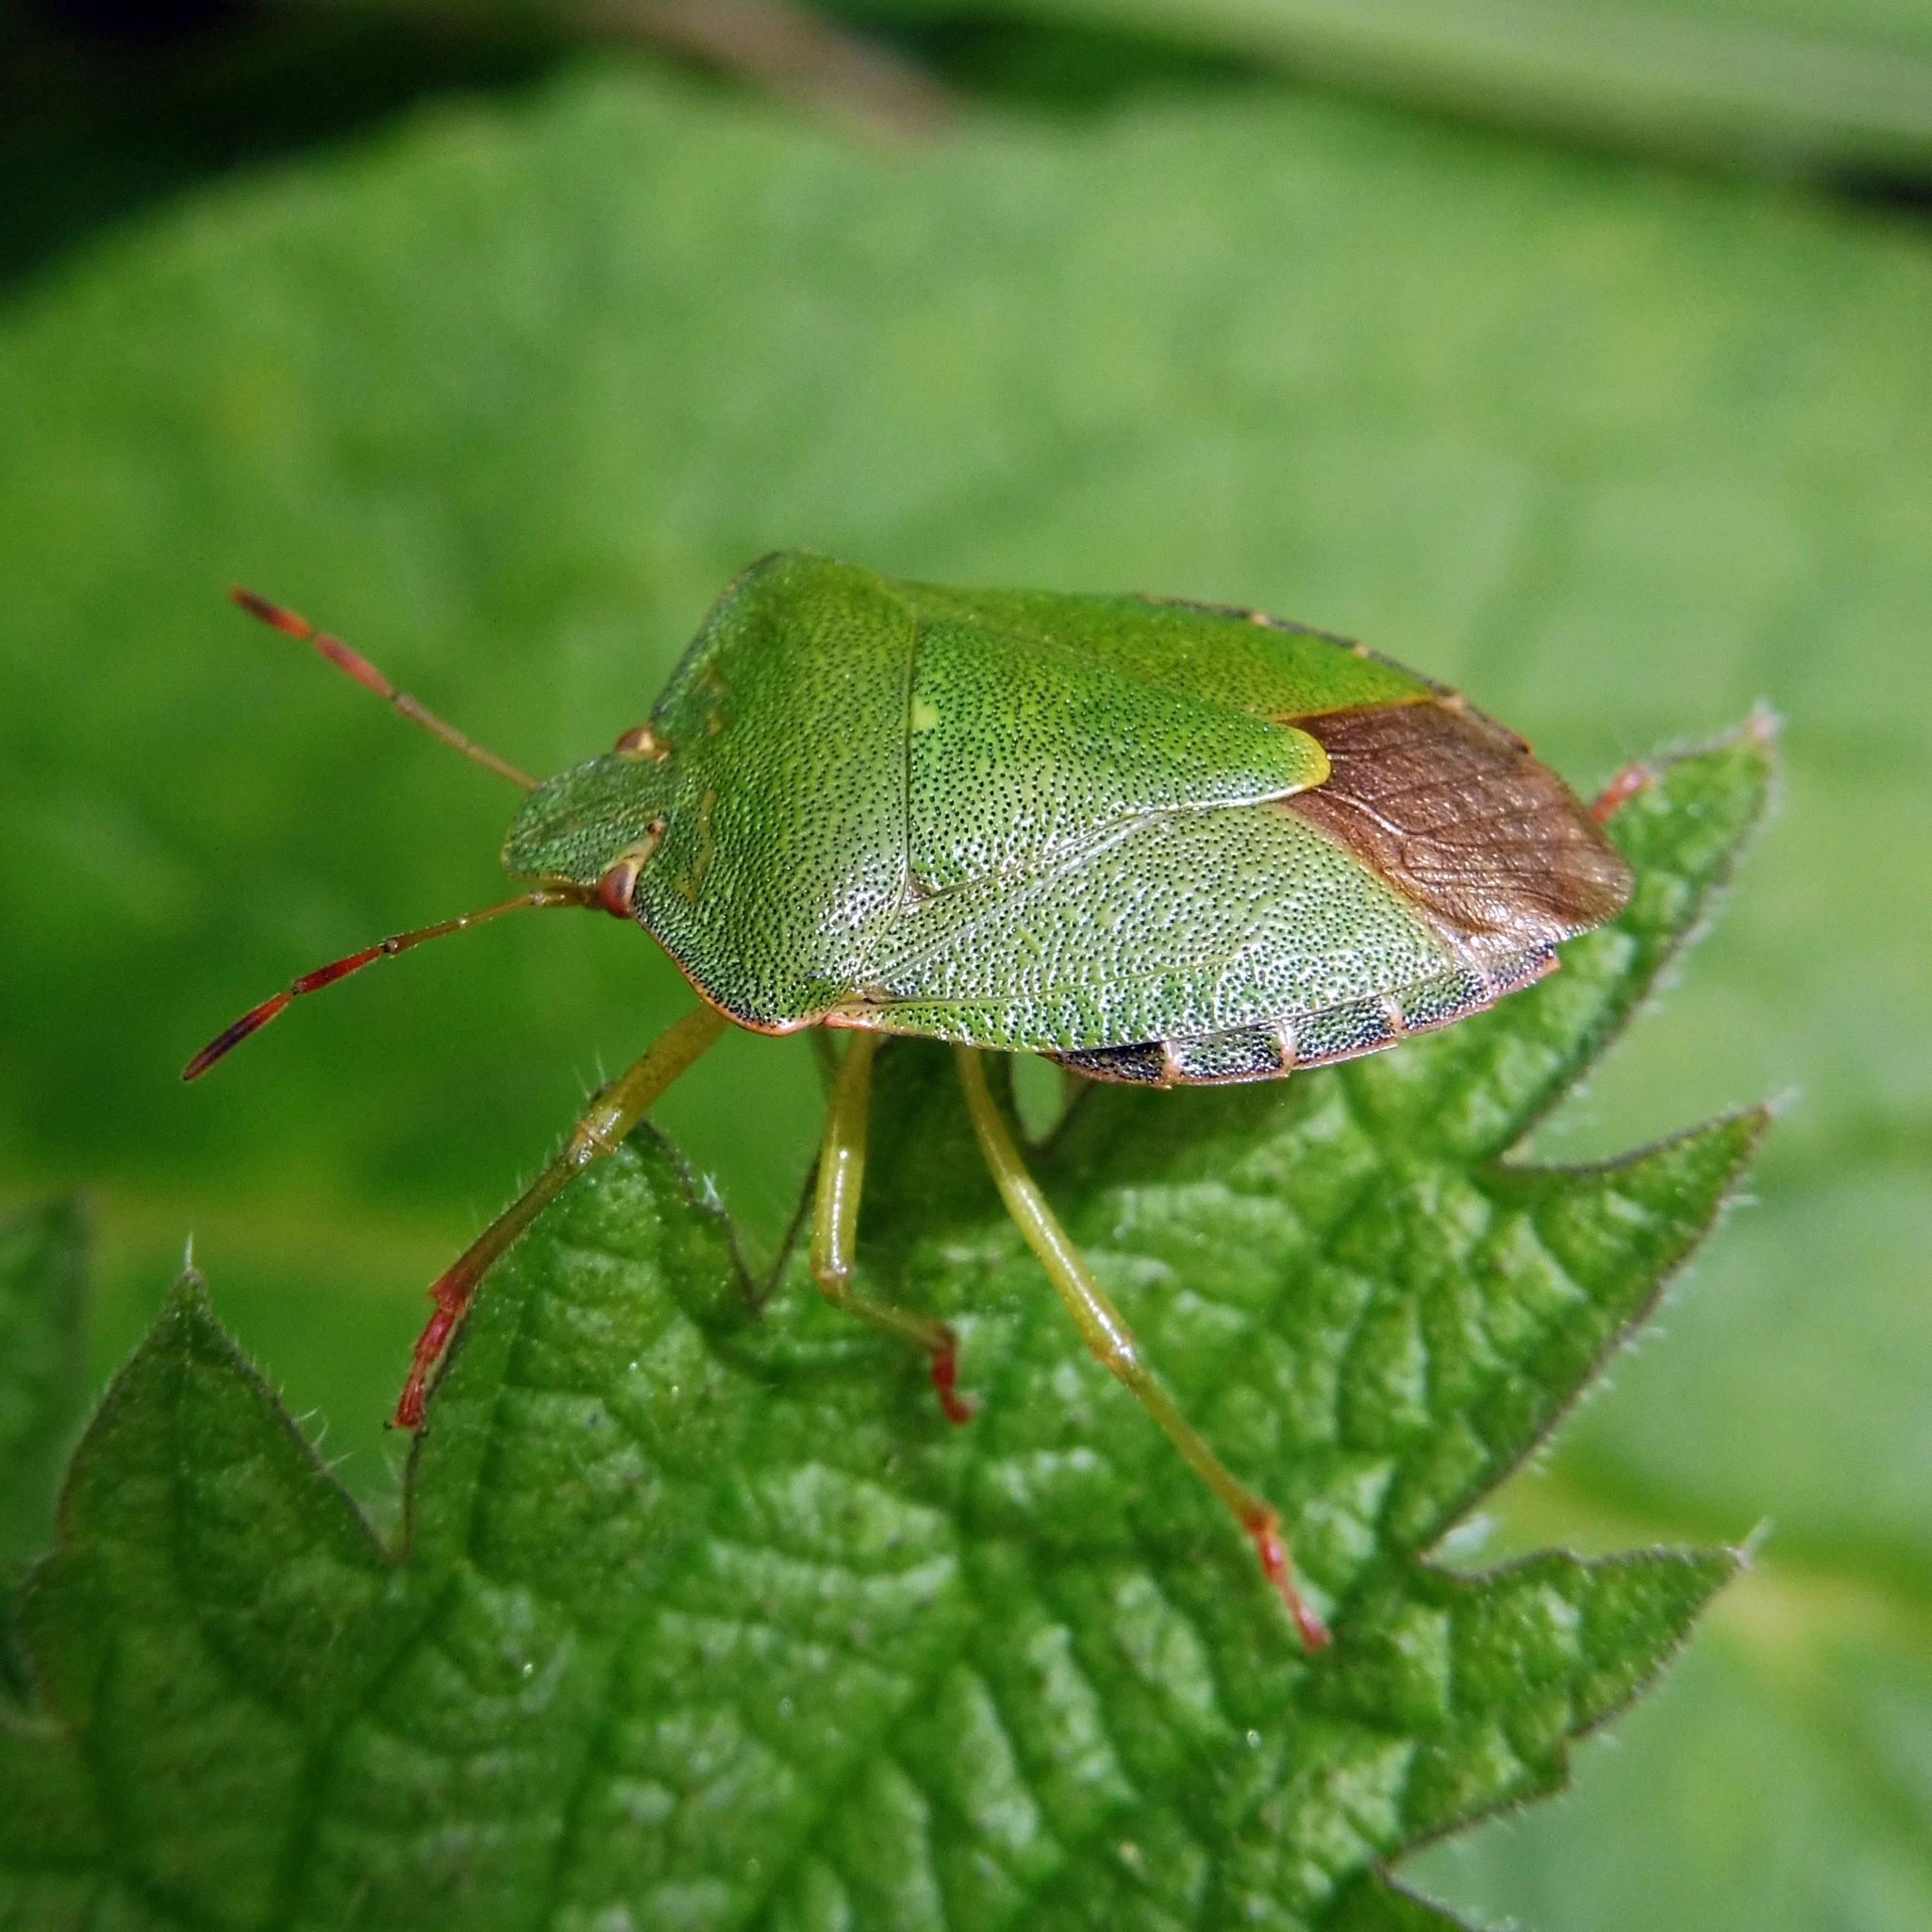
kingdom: Animalia
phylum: Arthropoda
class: Insecta
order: Hemiptera
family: Pentatomidae
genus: Palomena
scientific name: Palomena prasina
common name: Green shieldbug
